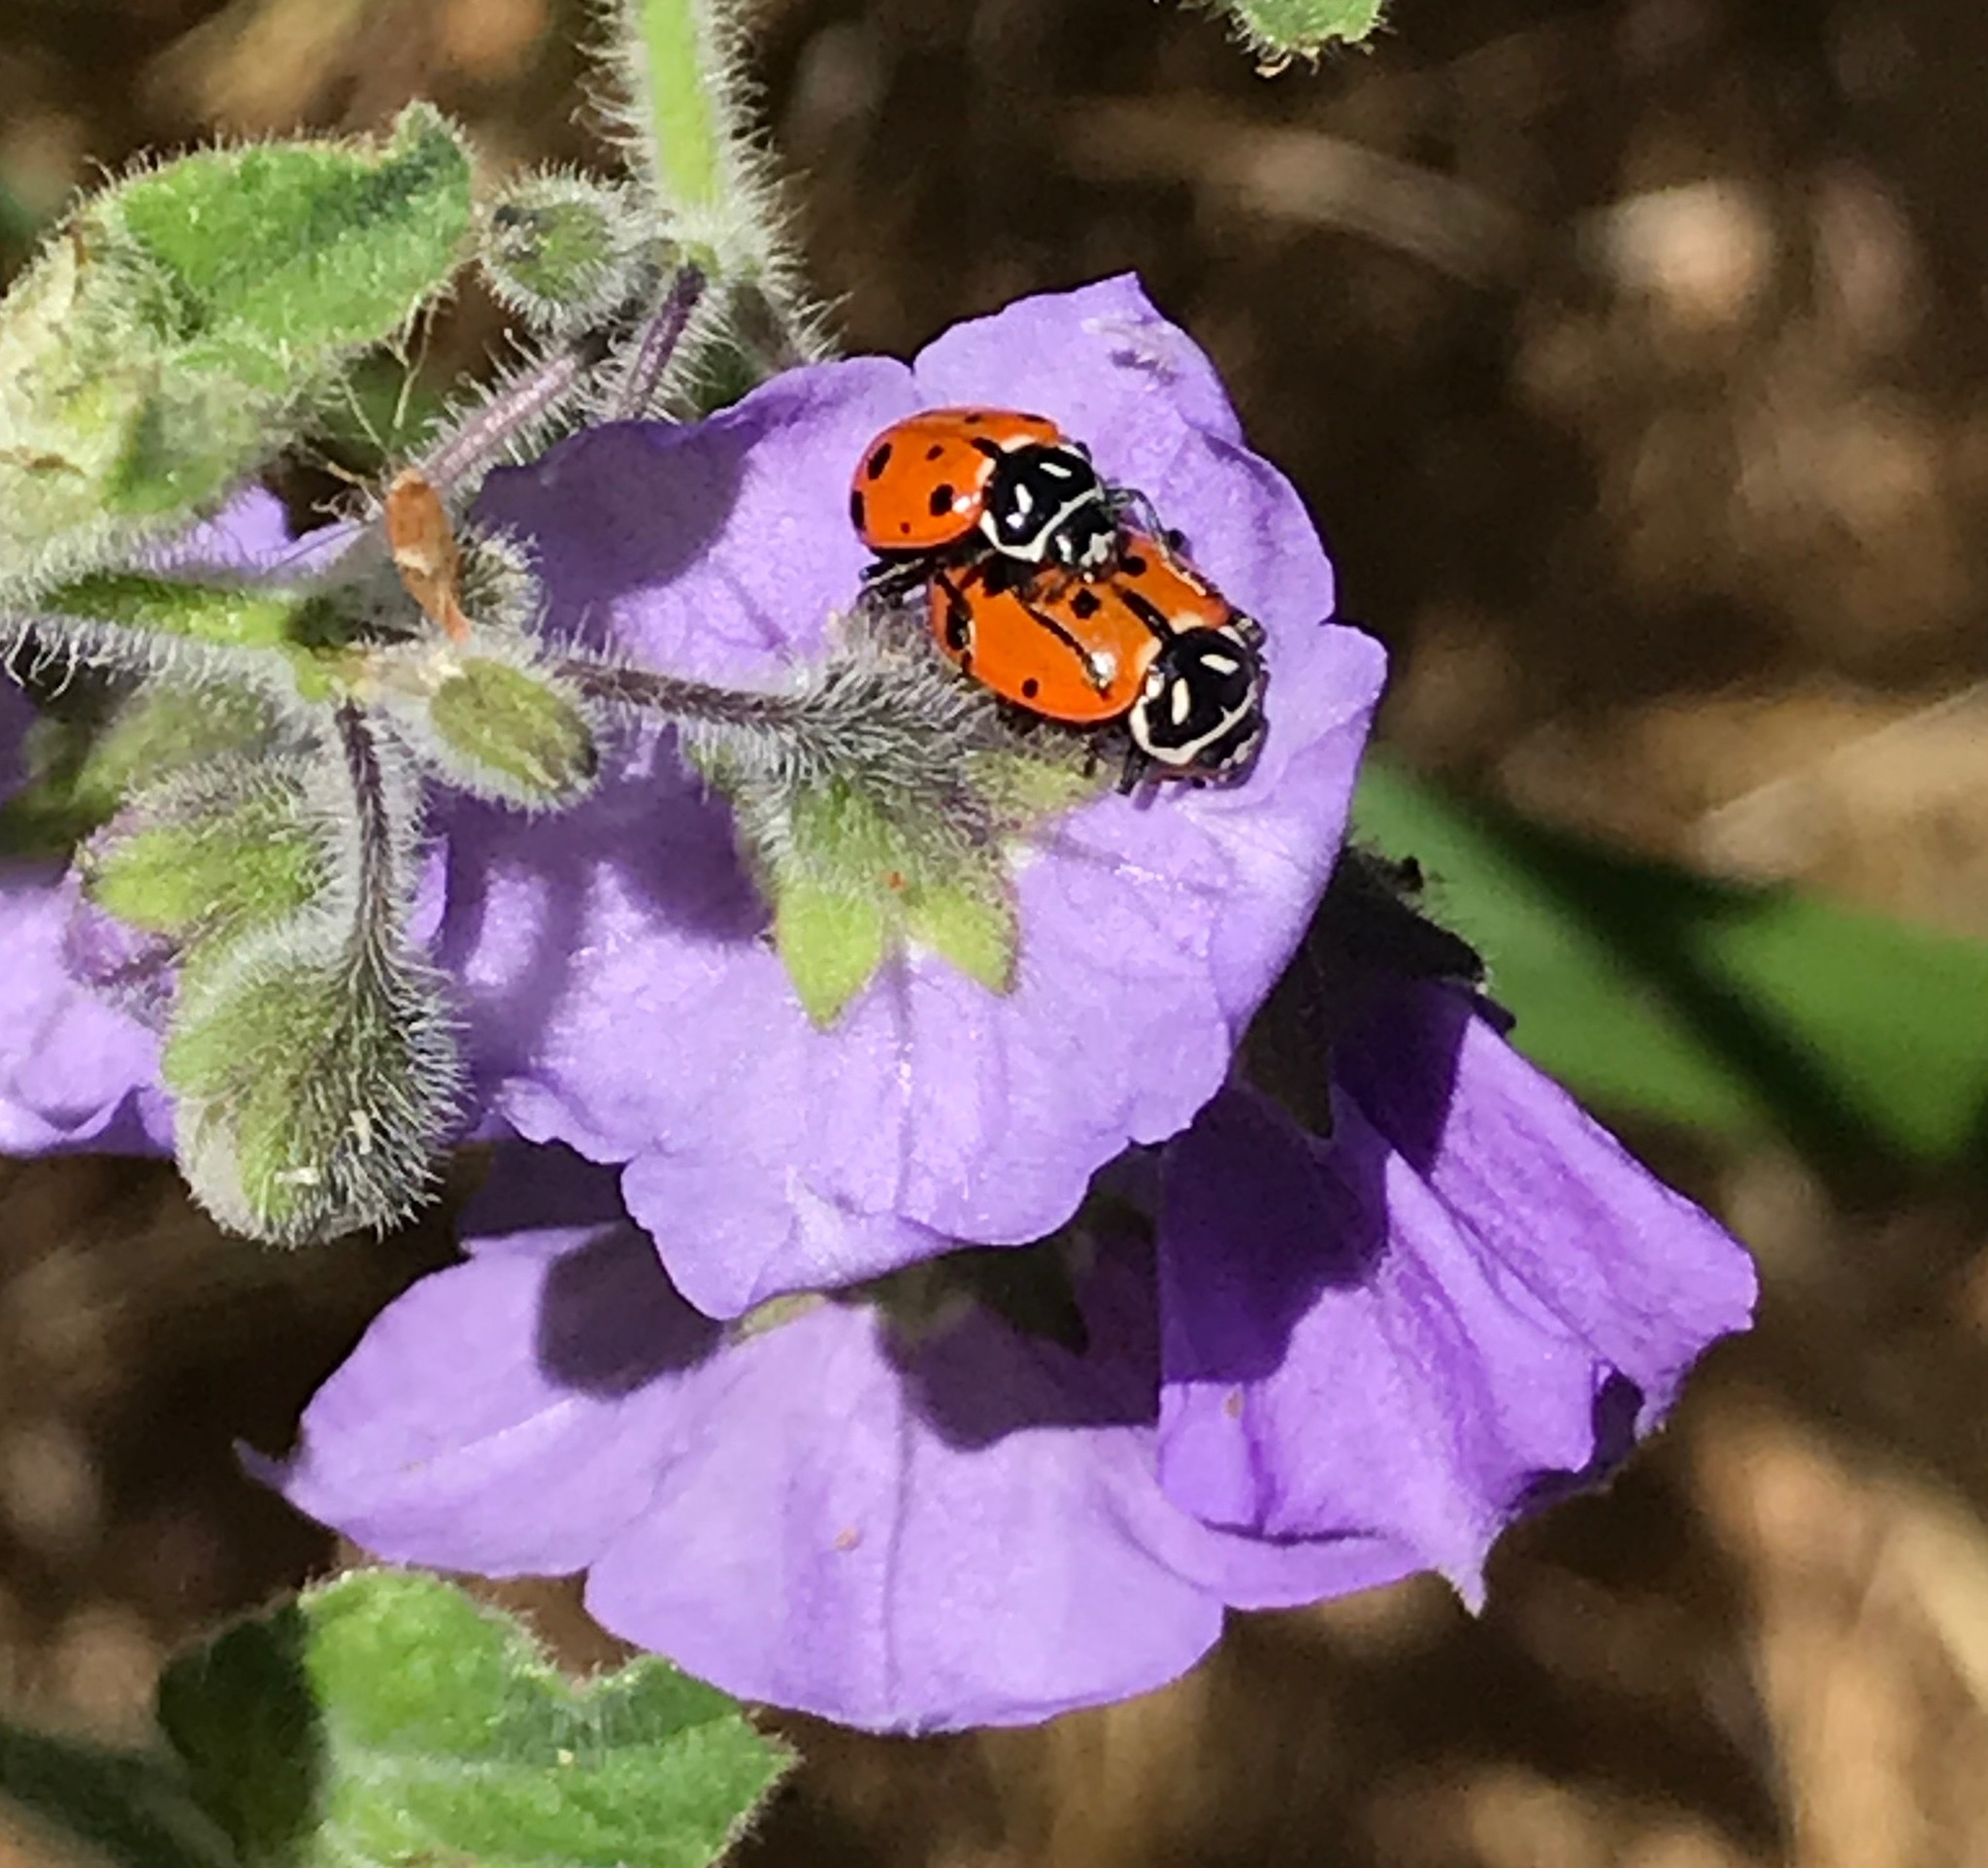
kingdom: Animalia
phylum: Arthropoda
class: Insecta
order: Coleoptera
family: Coccinellidae
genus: Hippodamia
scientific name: Hippodamia convergens
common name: Convergent lady beetle
